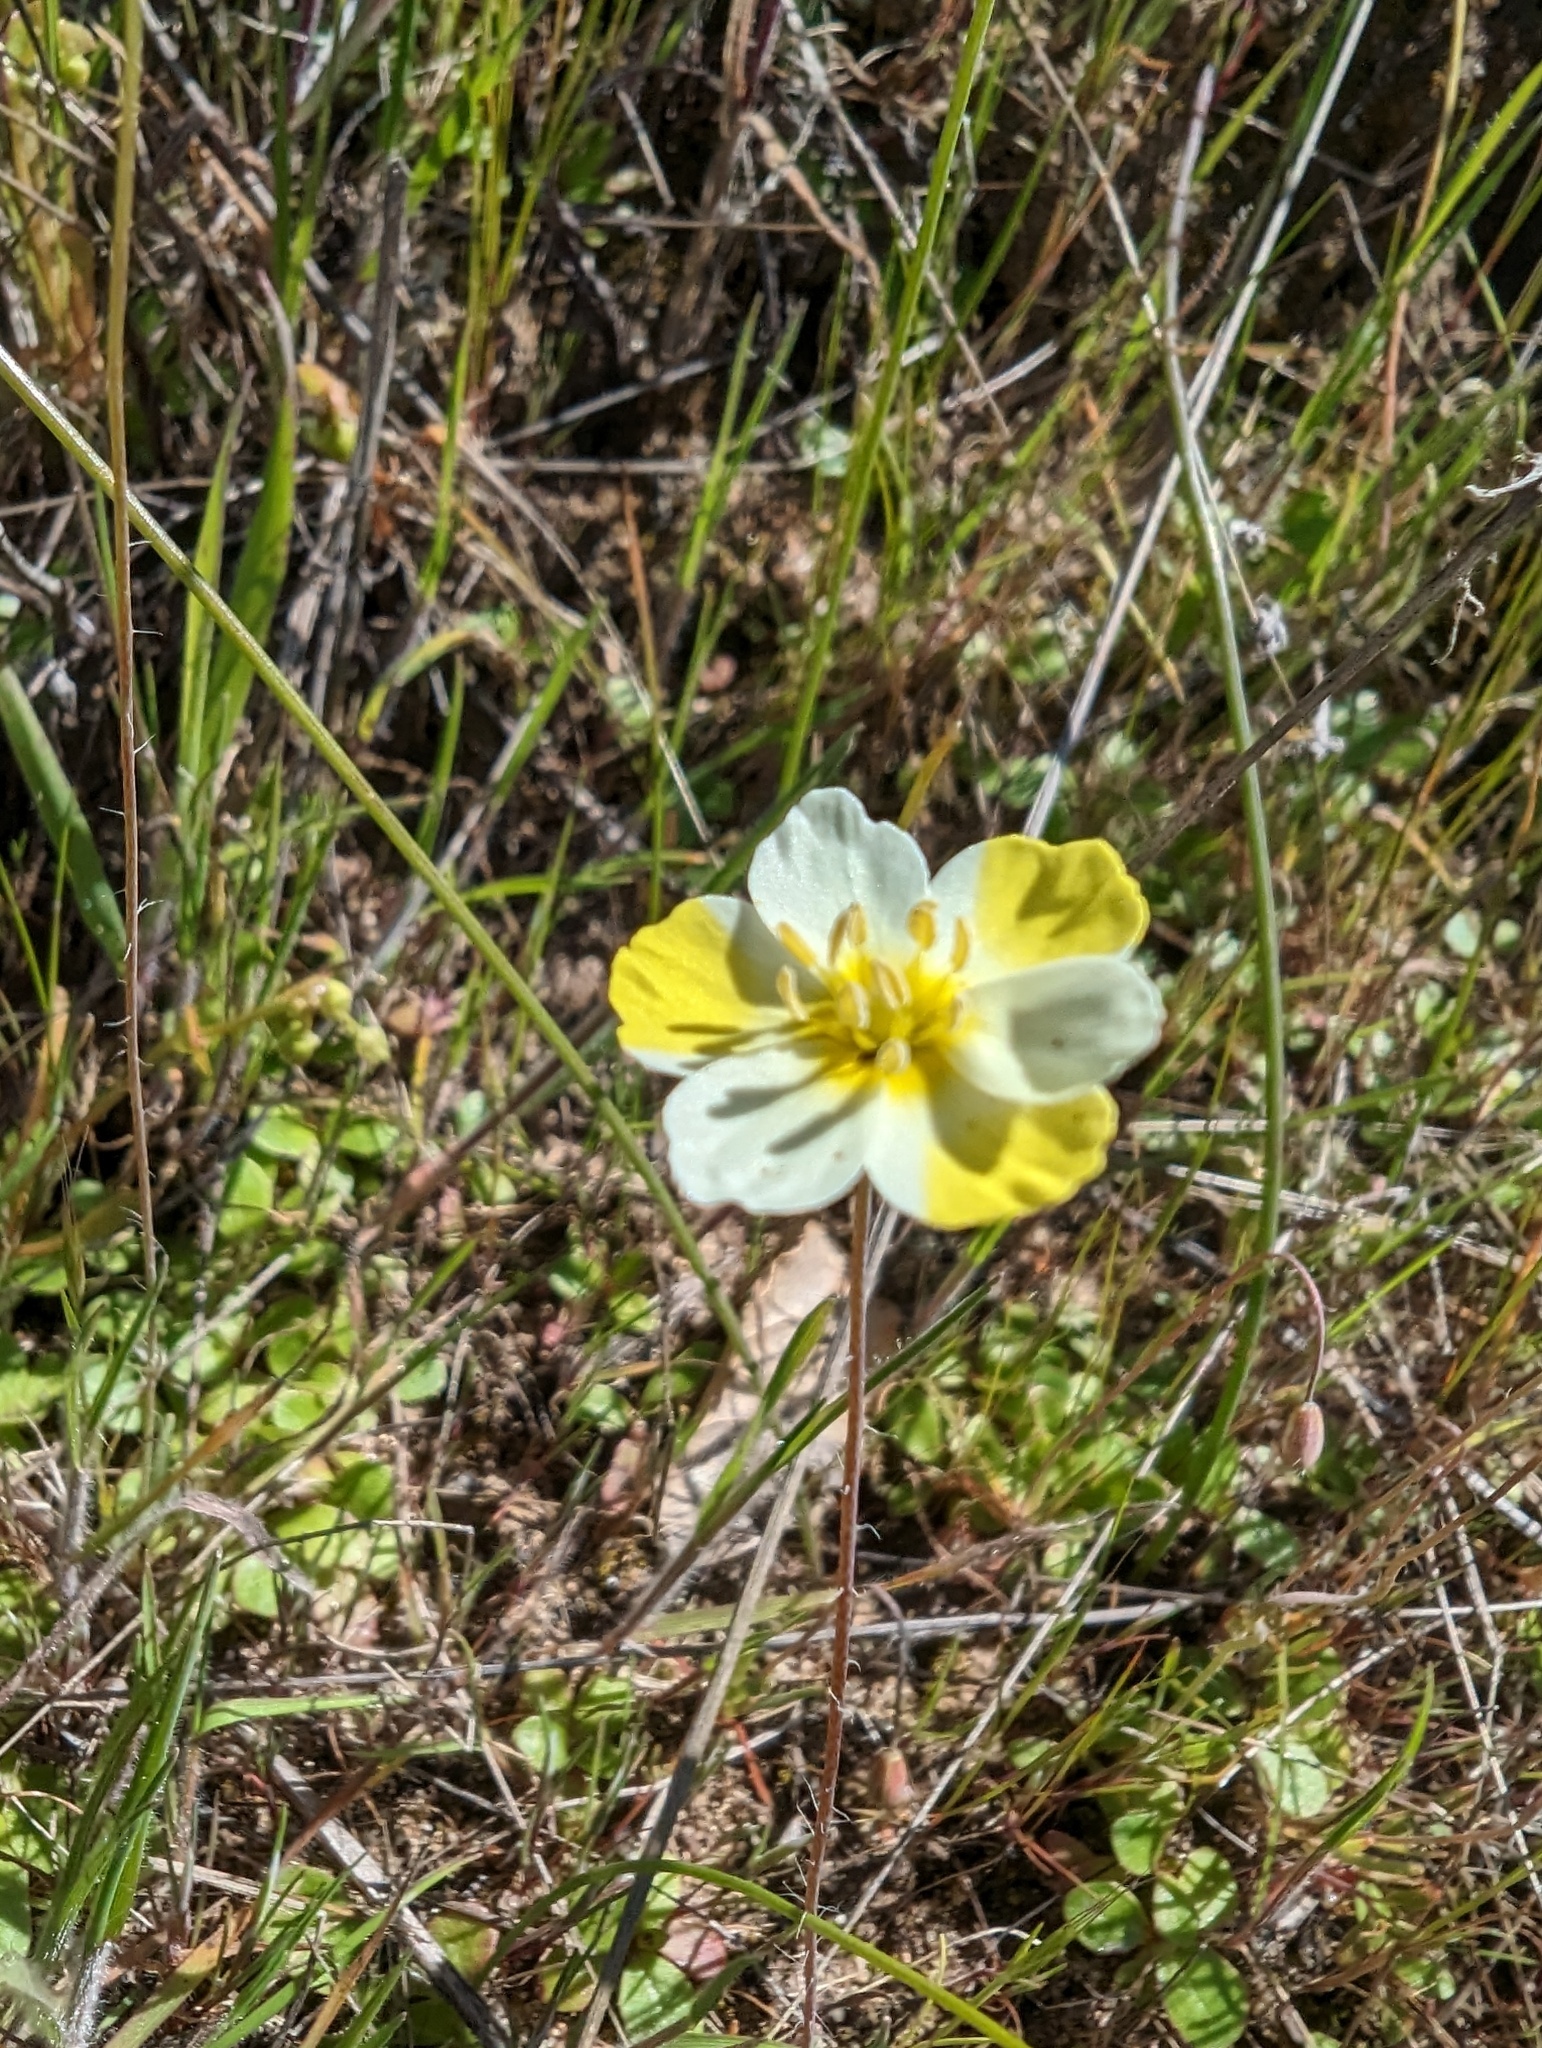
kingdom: Plantae
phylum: Tracheophyta
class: Magnoliopsida
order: Ranunculales
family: Papaveraceae
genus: Platystigma
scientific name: Platystigma lineare
